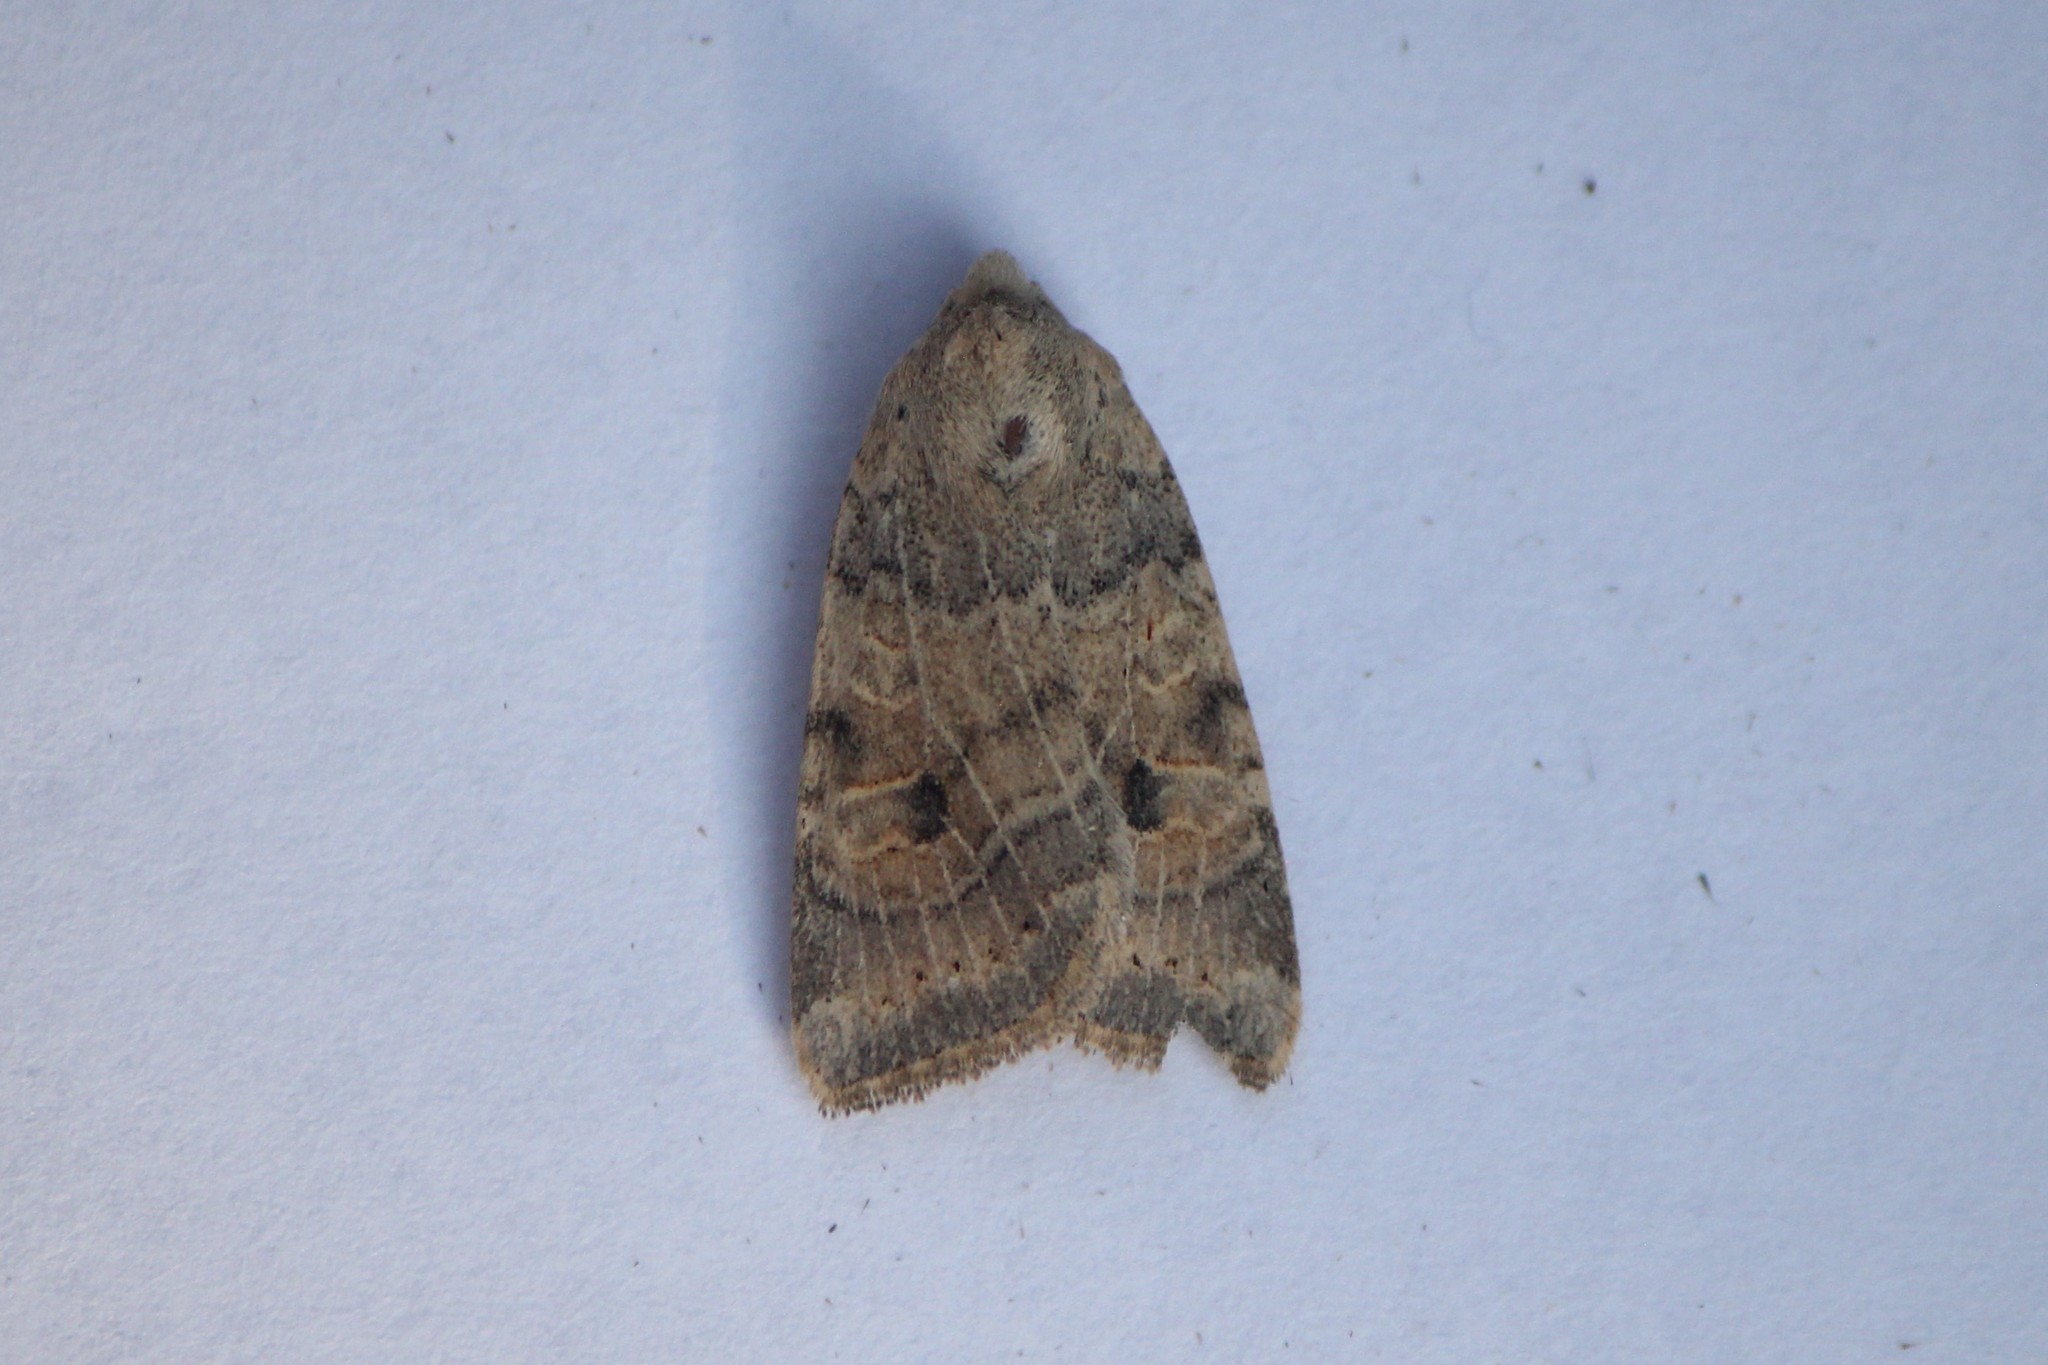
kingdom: Animalia
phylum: Arthropoda
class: Insecta
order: Lepidoptera
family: Noctuidae
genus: Anathix
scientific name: Anathix puta
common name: Puta sallow
